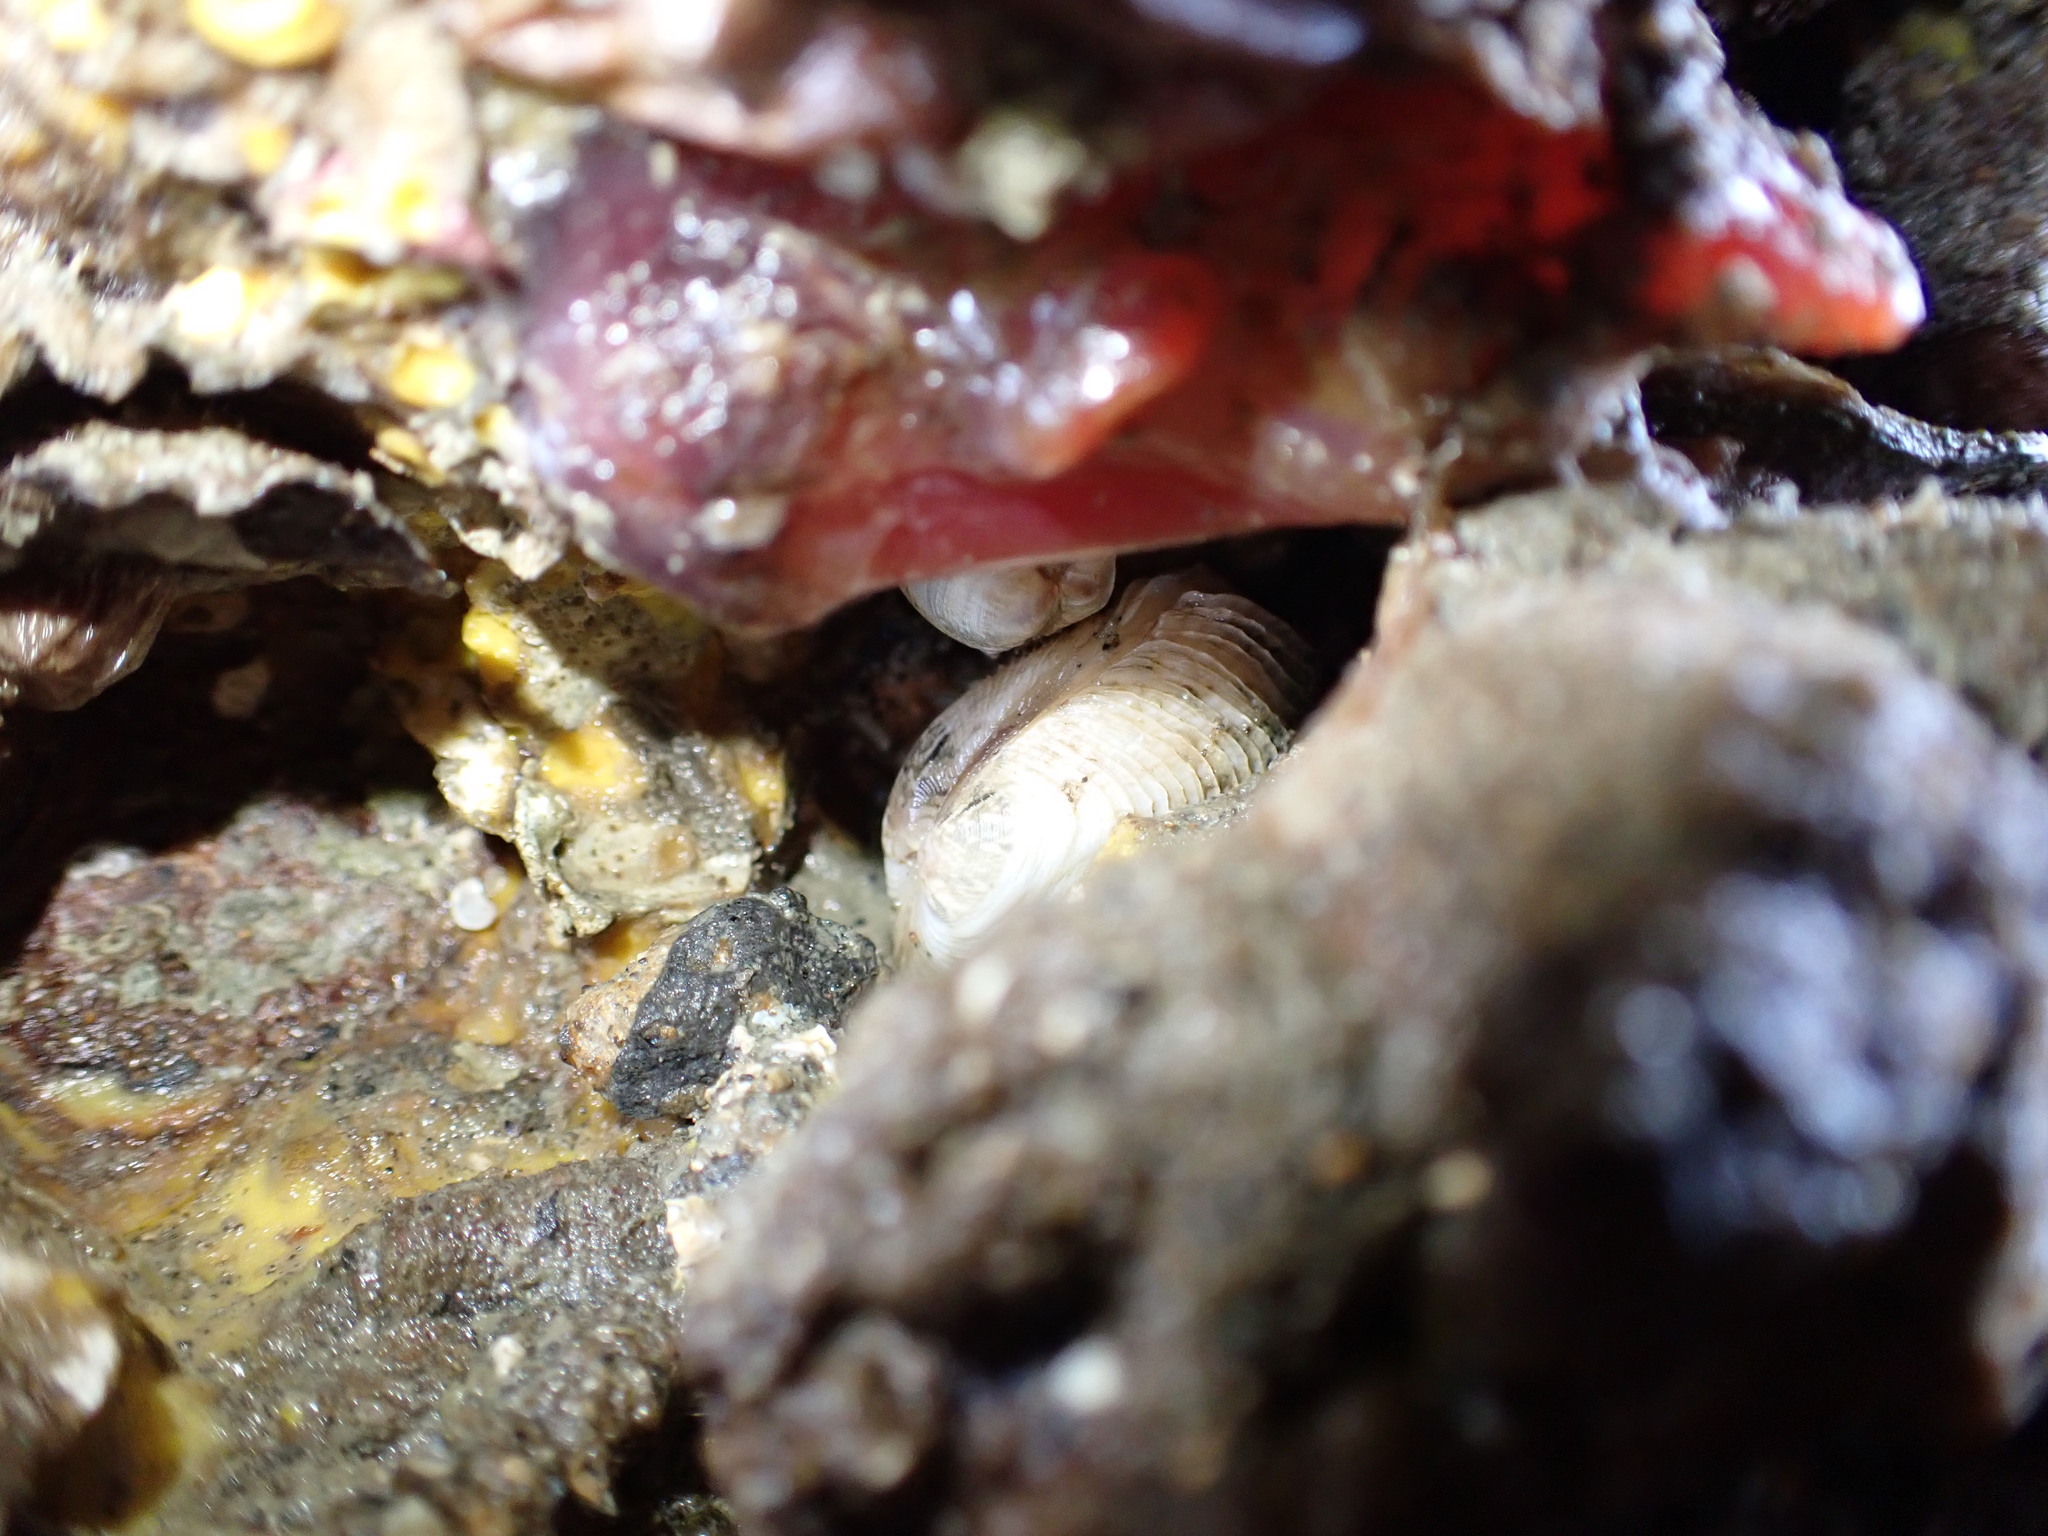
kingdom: Animalia
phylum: Mollusca
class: Bivalvia
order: Venerida
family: Veneridae
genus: Irus
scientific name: Irus reflexus
